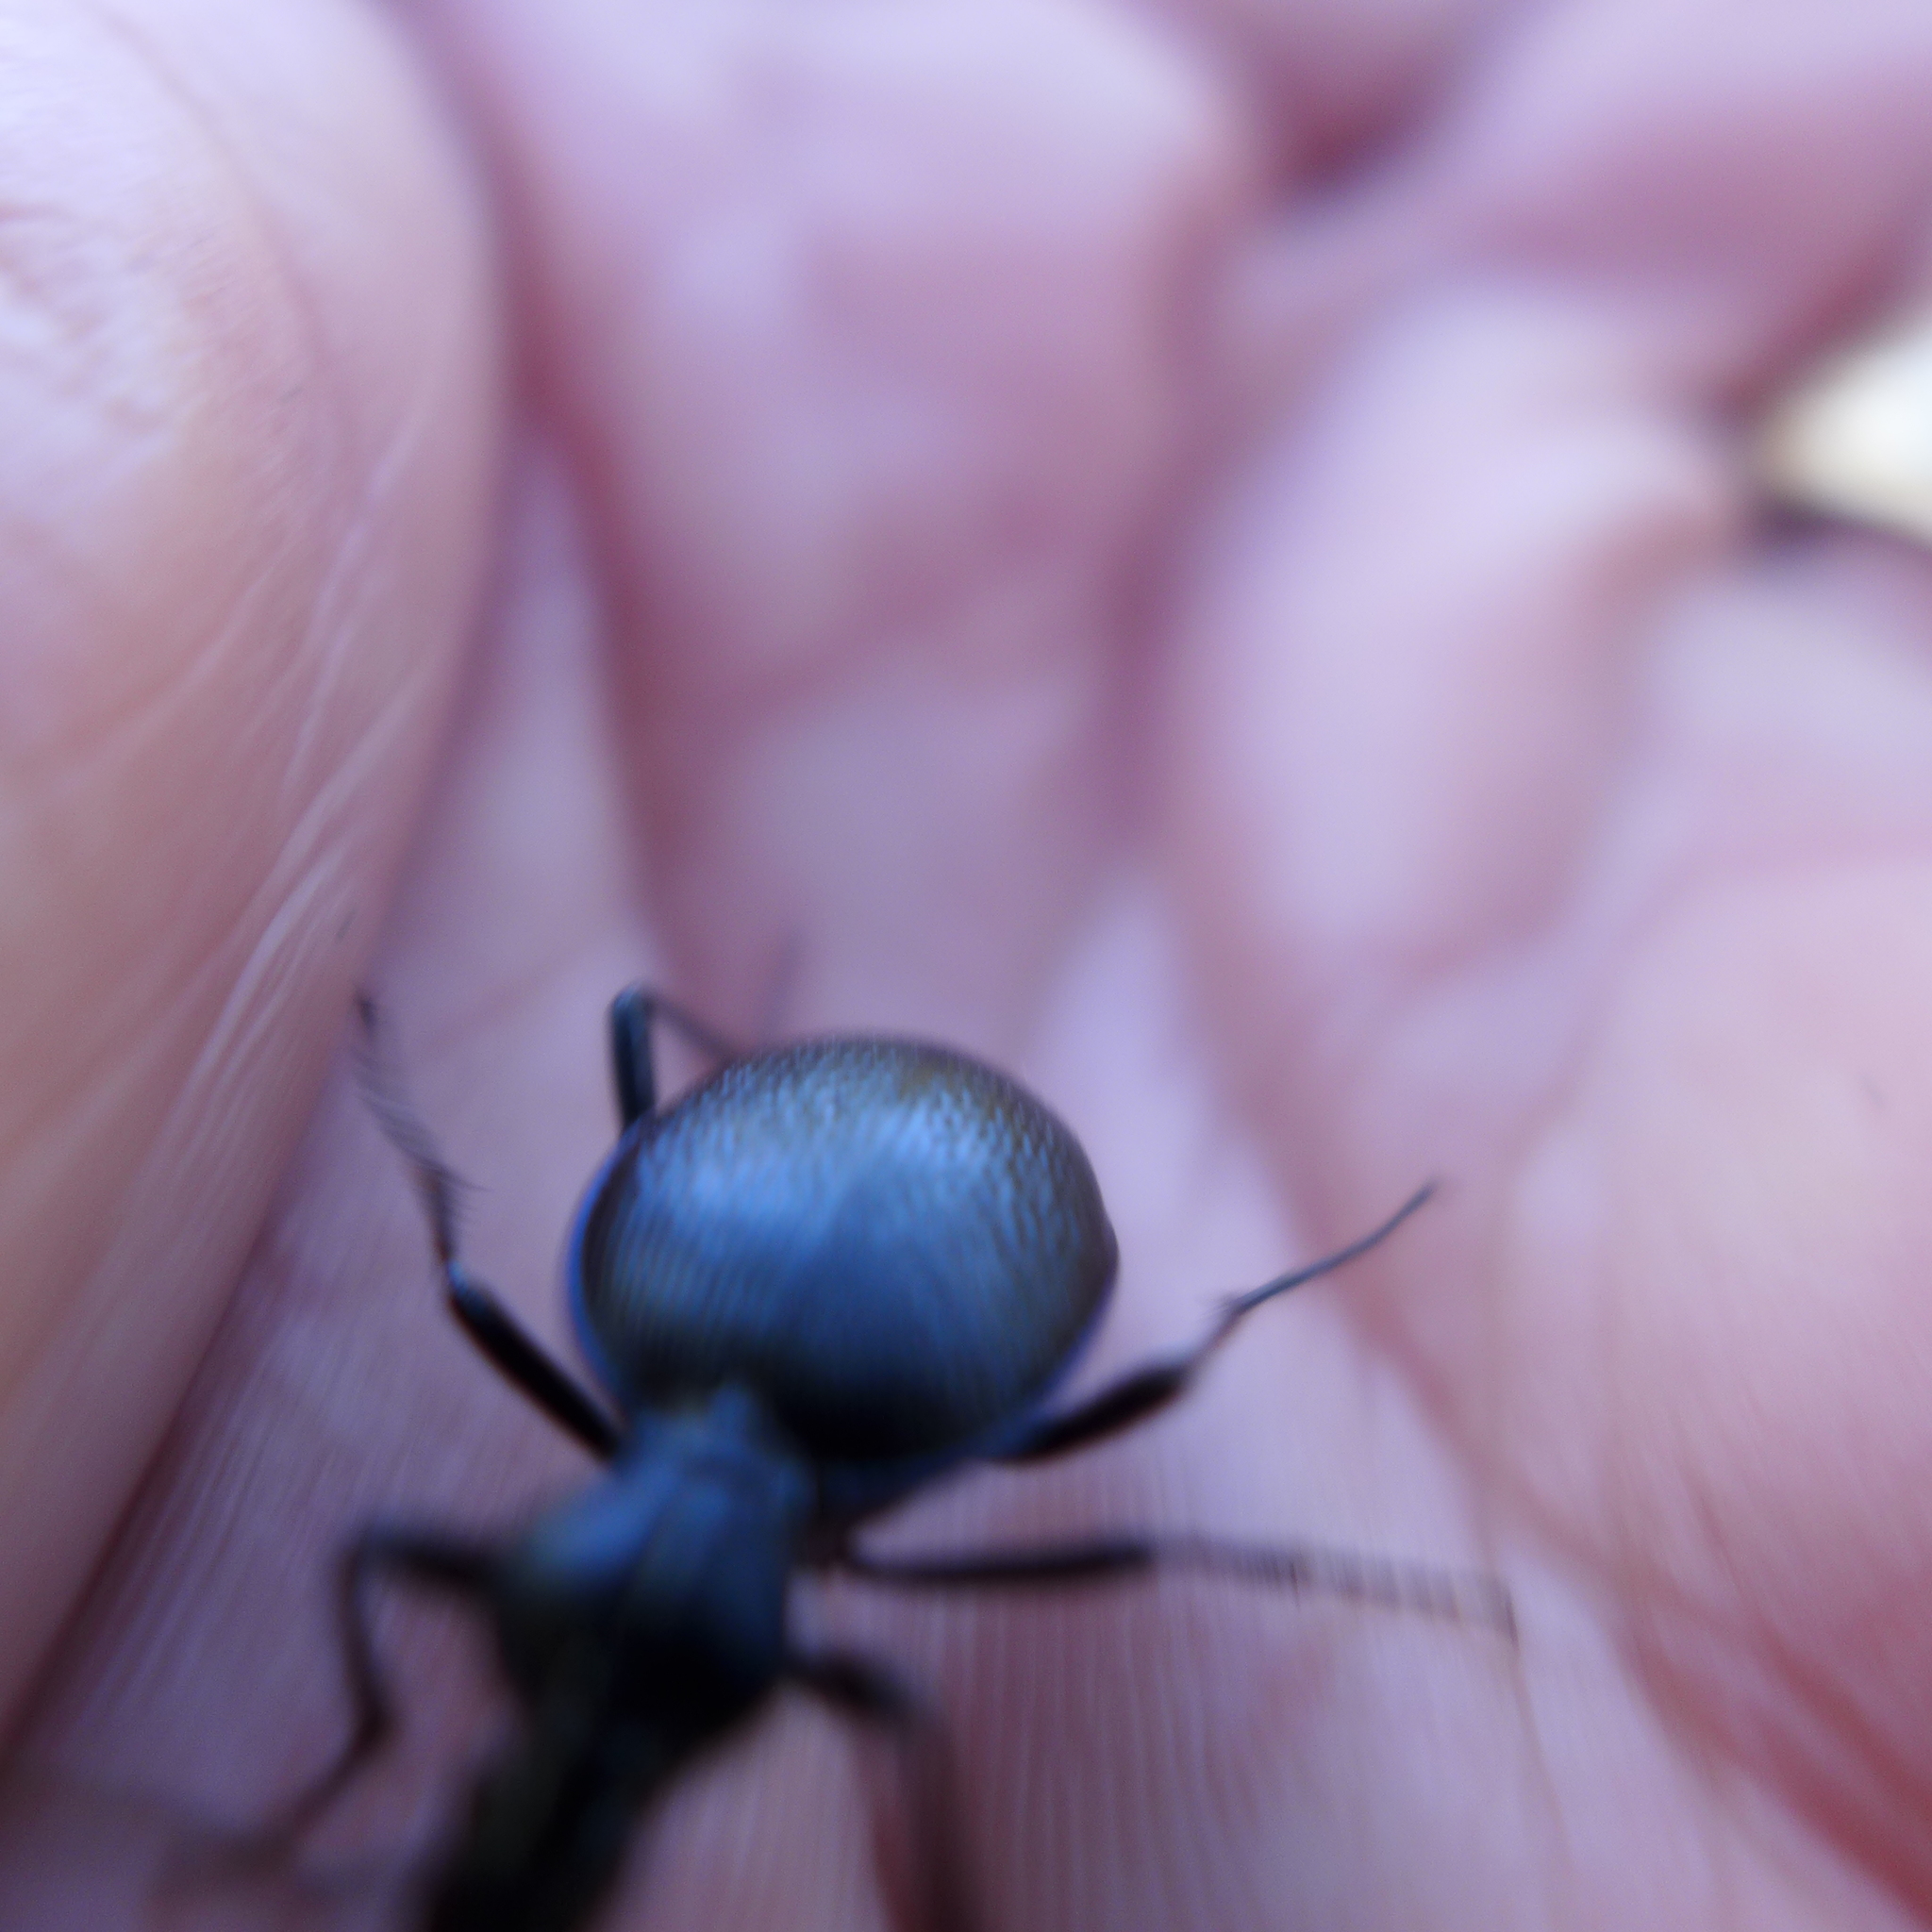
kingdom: Animalia
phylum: Arthropoda
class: Insecta
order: Coleoptera
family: Carabidae
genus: Scaphinotus
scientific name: Scaphinotus interruptus
